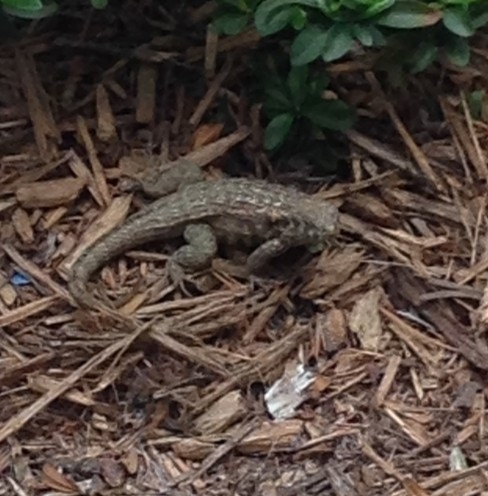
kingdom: Animalia
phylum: Chordata
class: Squamata
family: Leiocephalidae
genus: Leiocephalus
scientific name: Leiocephalus varius
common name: Cayman curlytail
